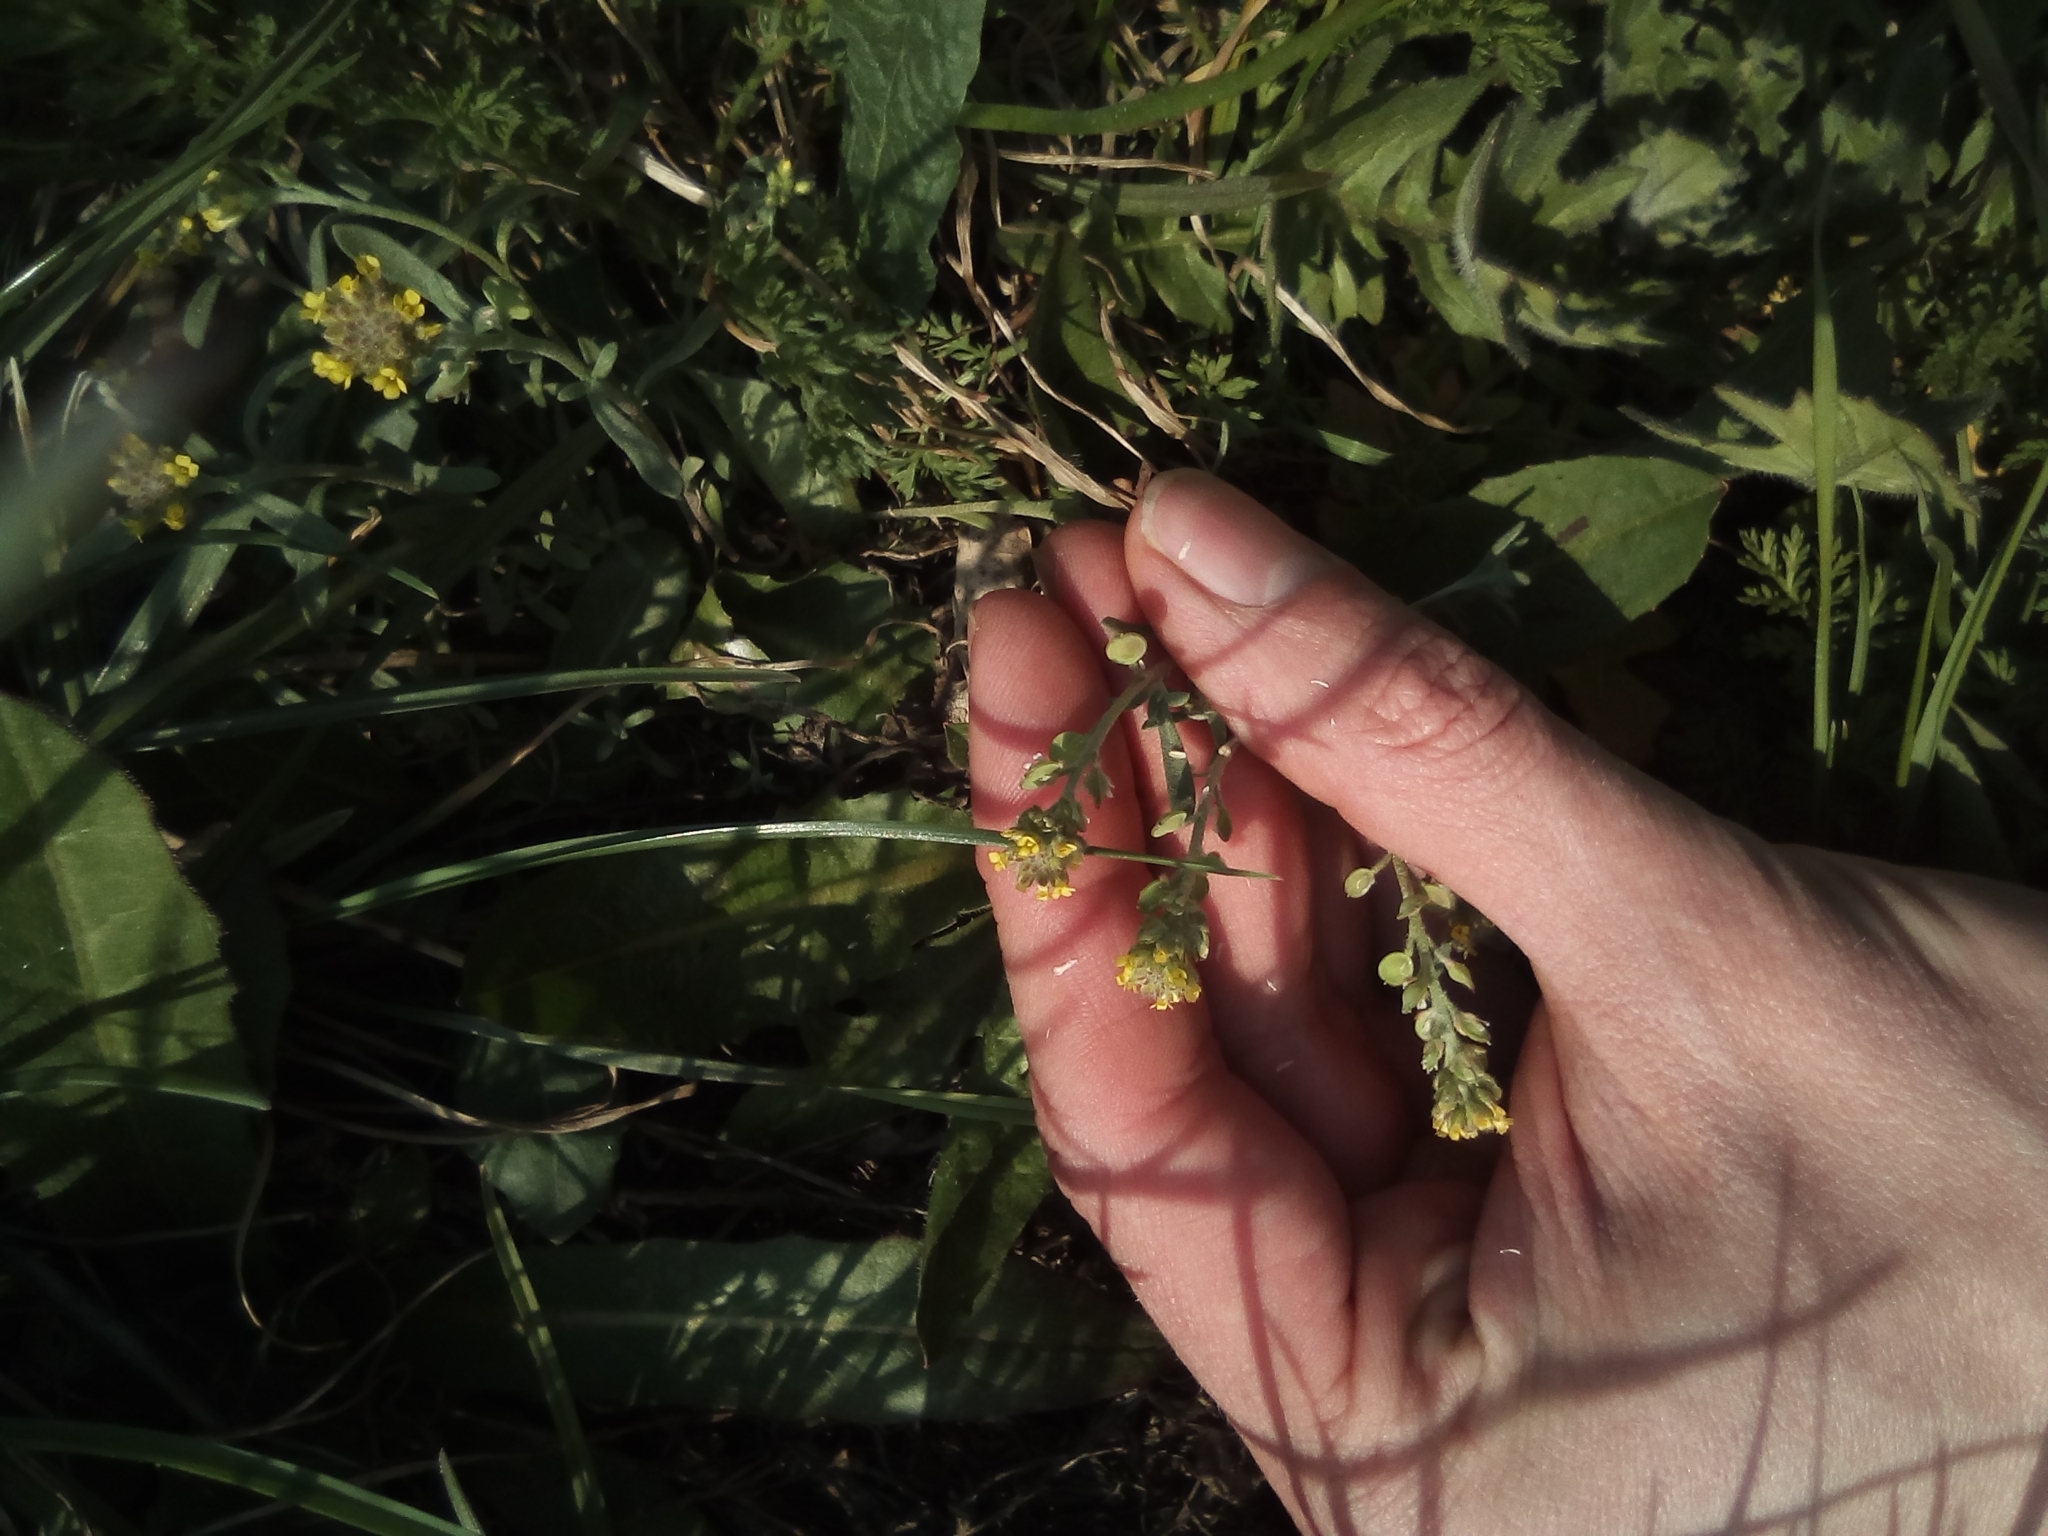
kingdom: Plantae
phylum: Tracheophyta
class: Magnoliopsida
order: Brassicales
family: Brassicaceae
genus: Alyssum
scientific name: Alyssum turkestanicum
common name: Desert alyssum
